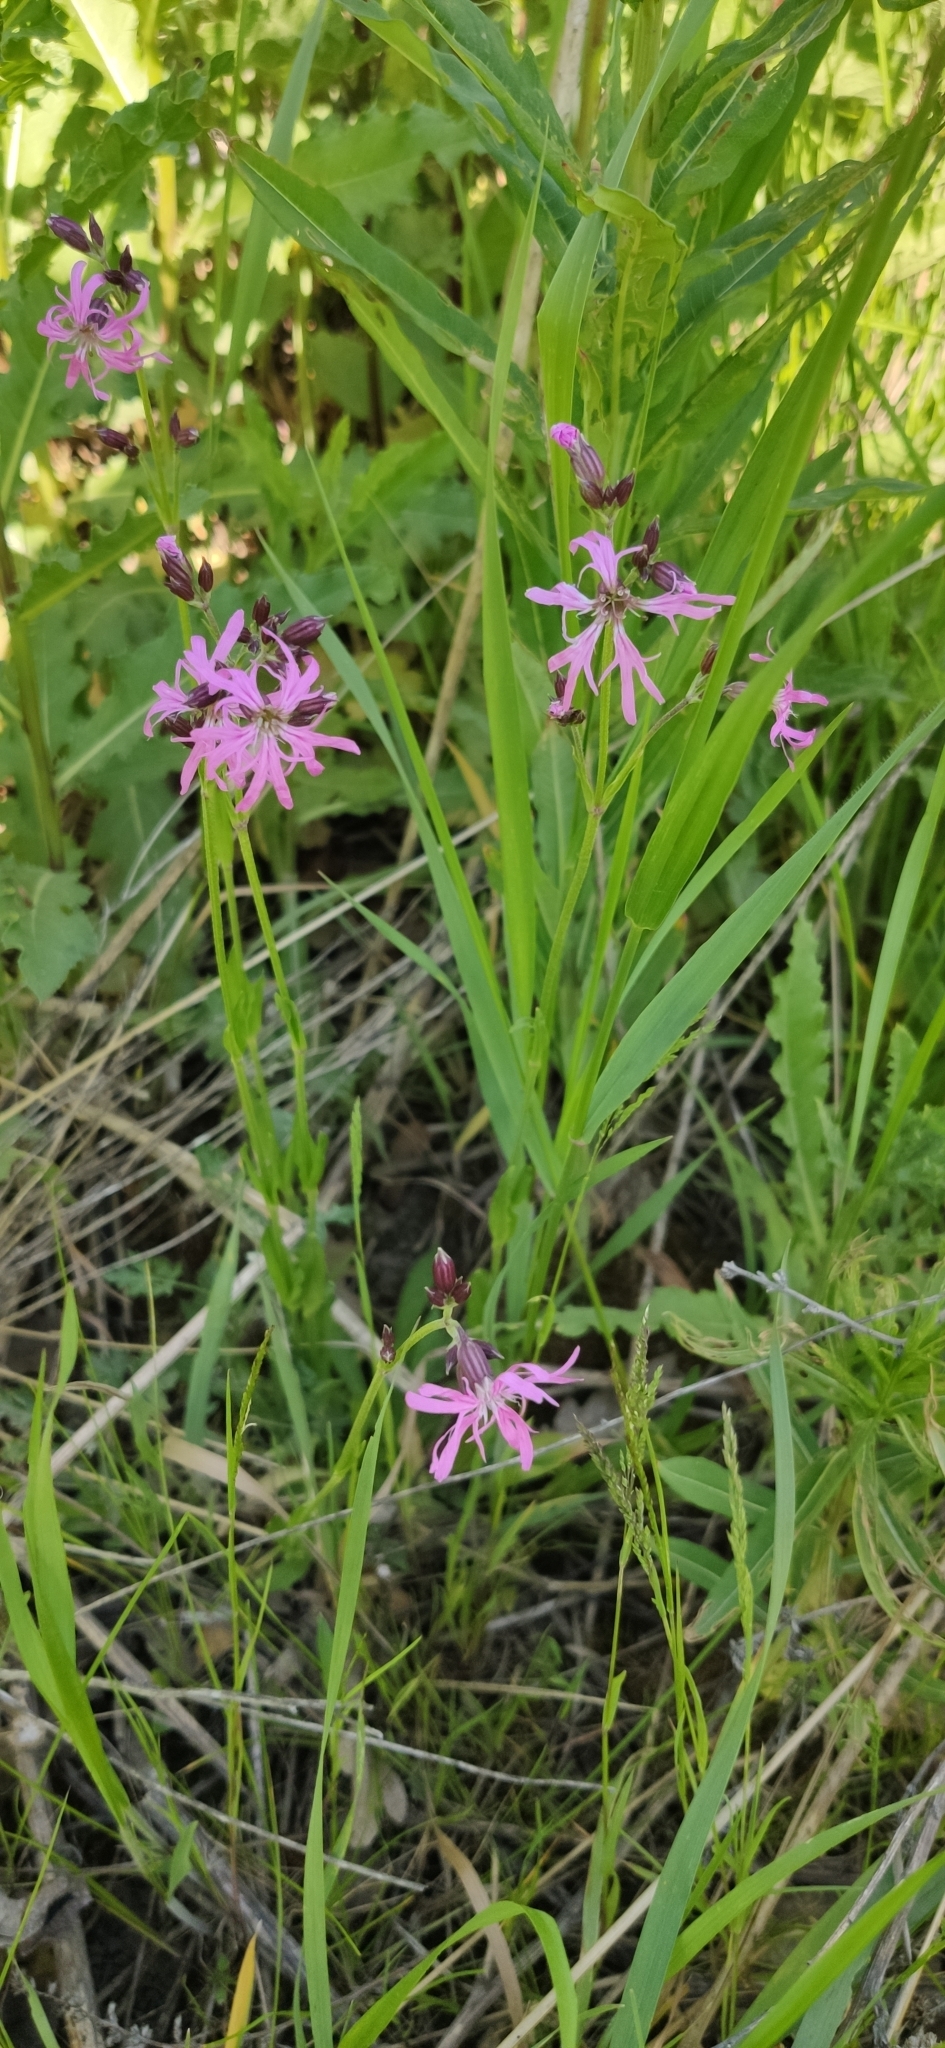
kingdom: Plantae
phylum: Tracheophyta
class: Magnoliopsida
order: Caryophyllales
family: Caryophyllaceae
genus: Silene
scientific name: Silene flos-cuculi
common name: Ragged-robin
